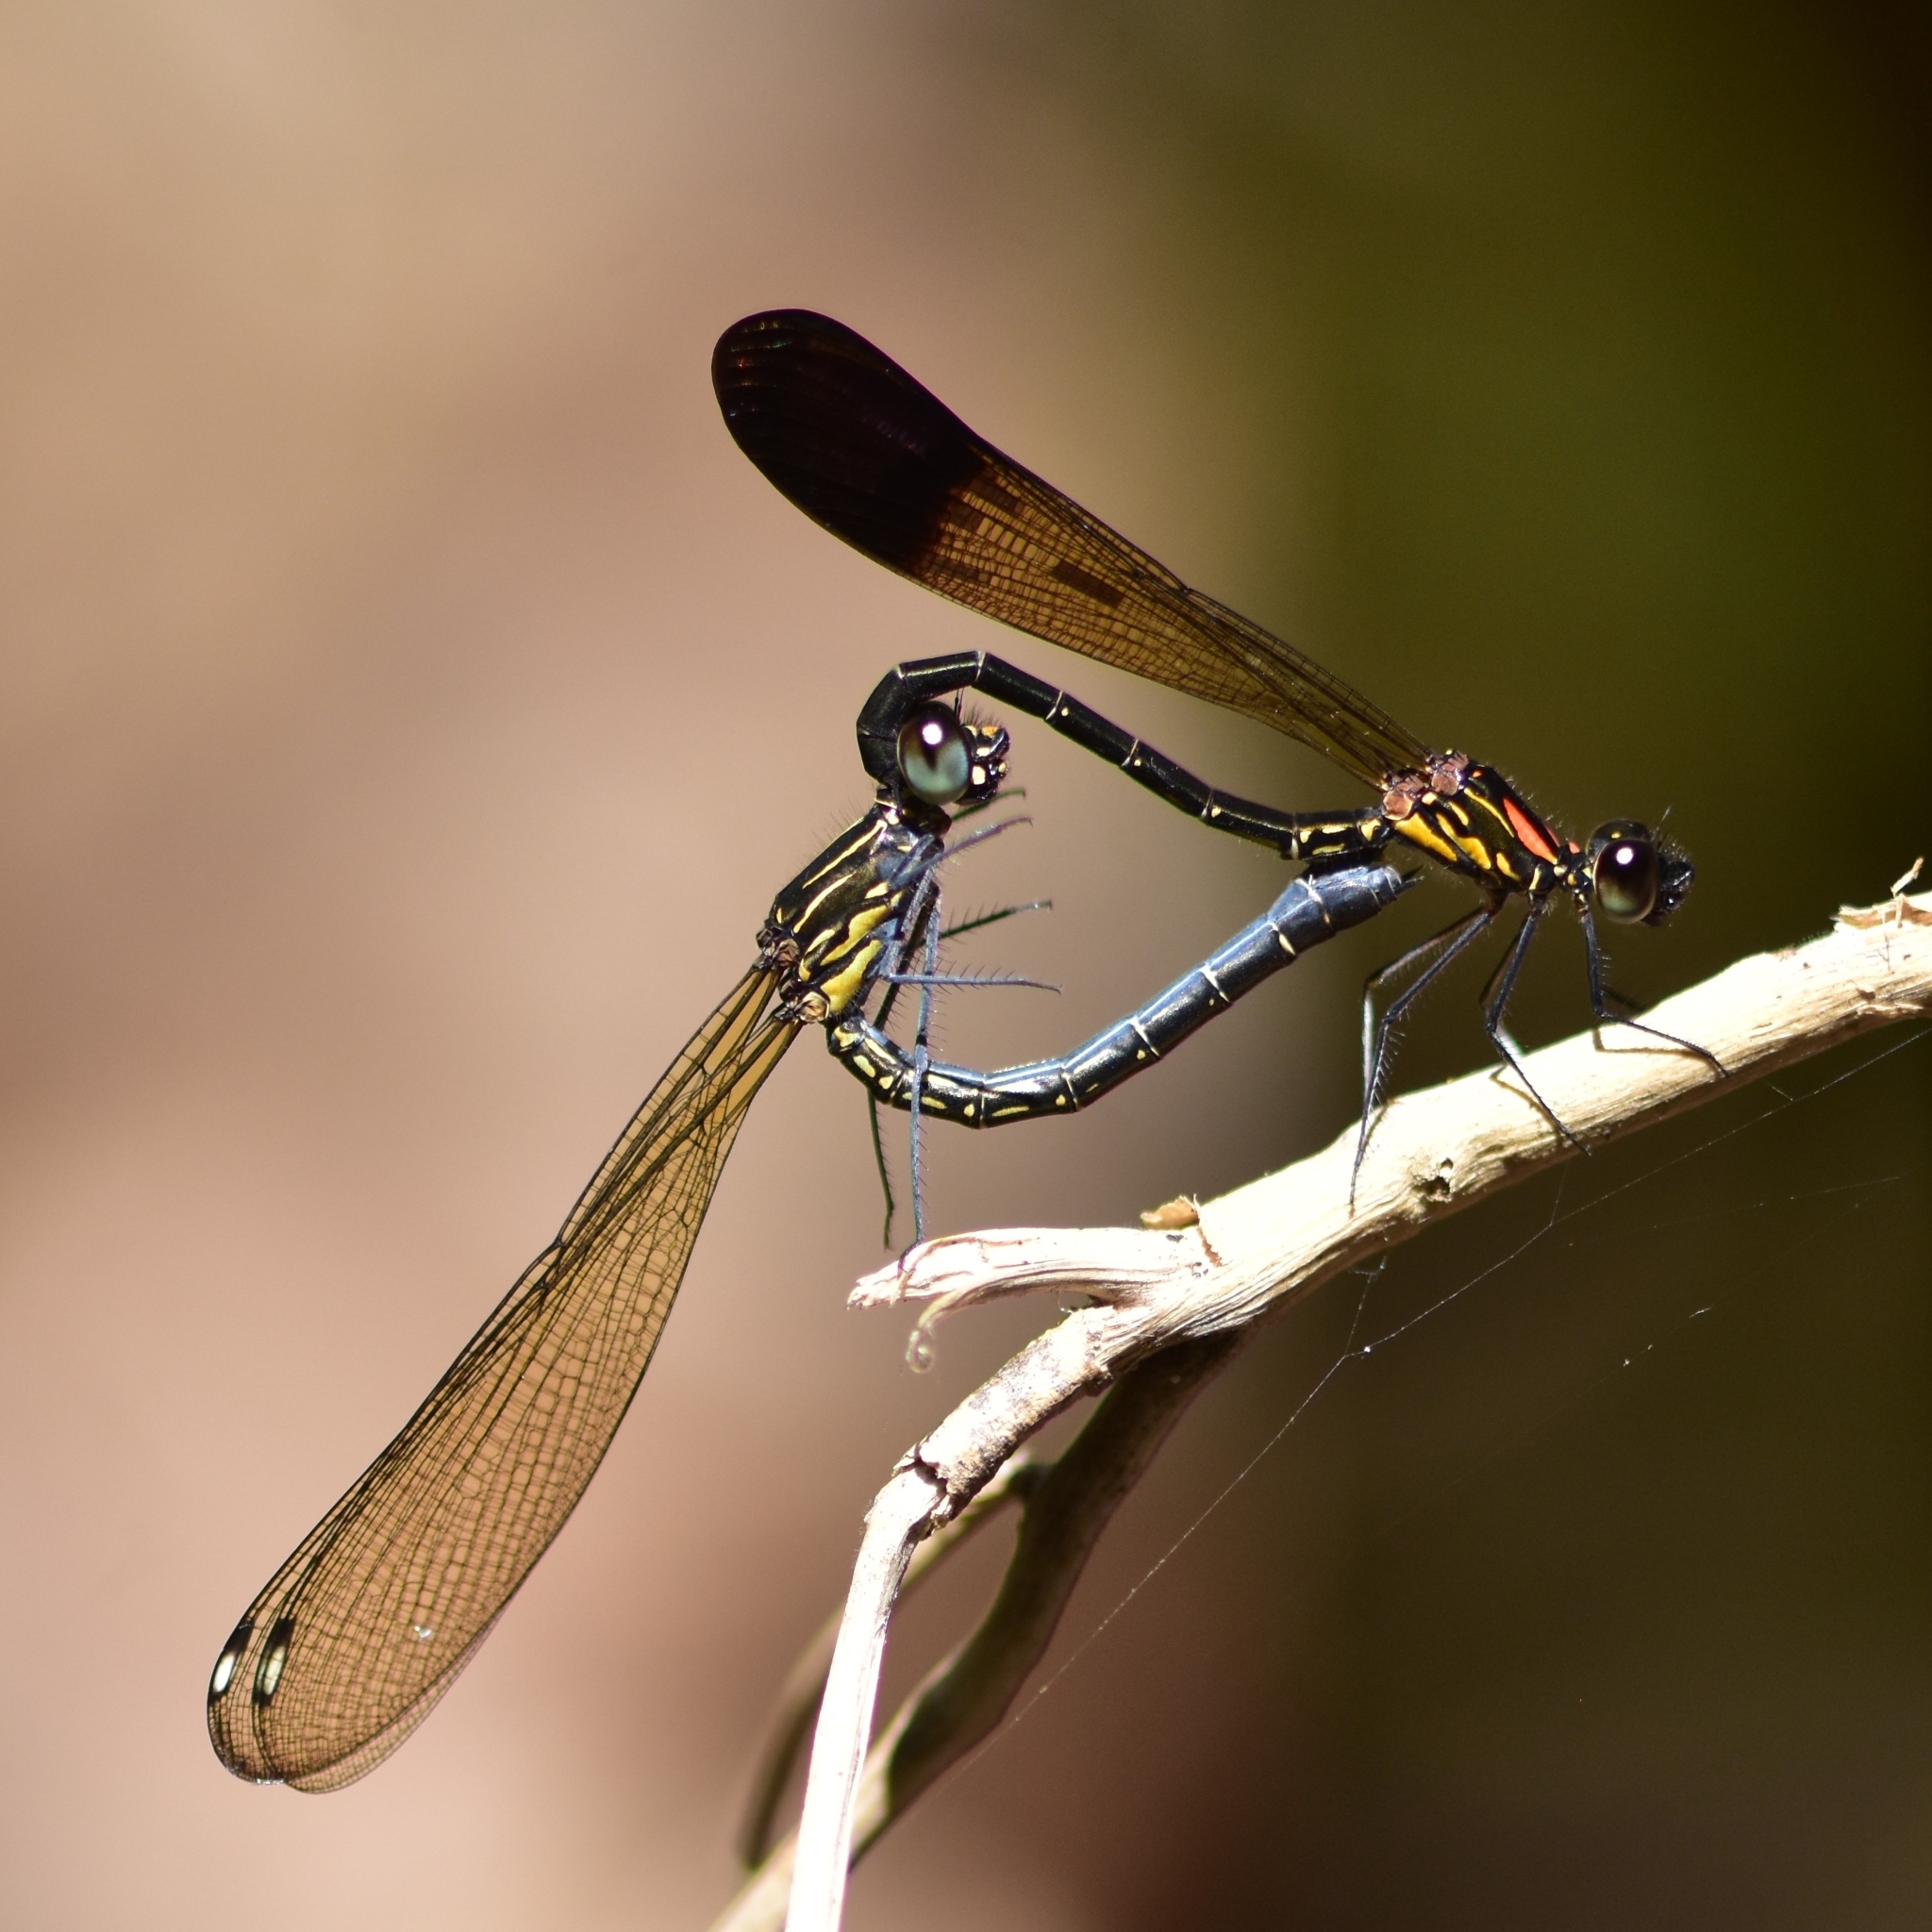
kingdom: Animalia
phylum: Arthropoda
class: Insecta
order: Odonata
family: Chlorocyphidae
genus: Heliocypha
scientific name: Heliocypha bisignata
